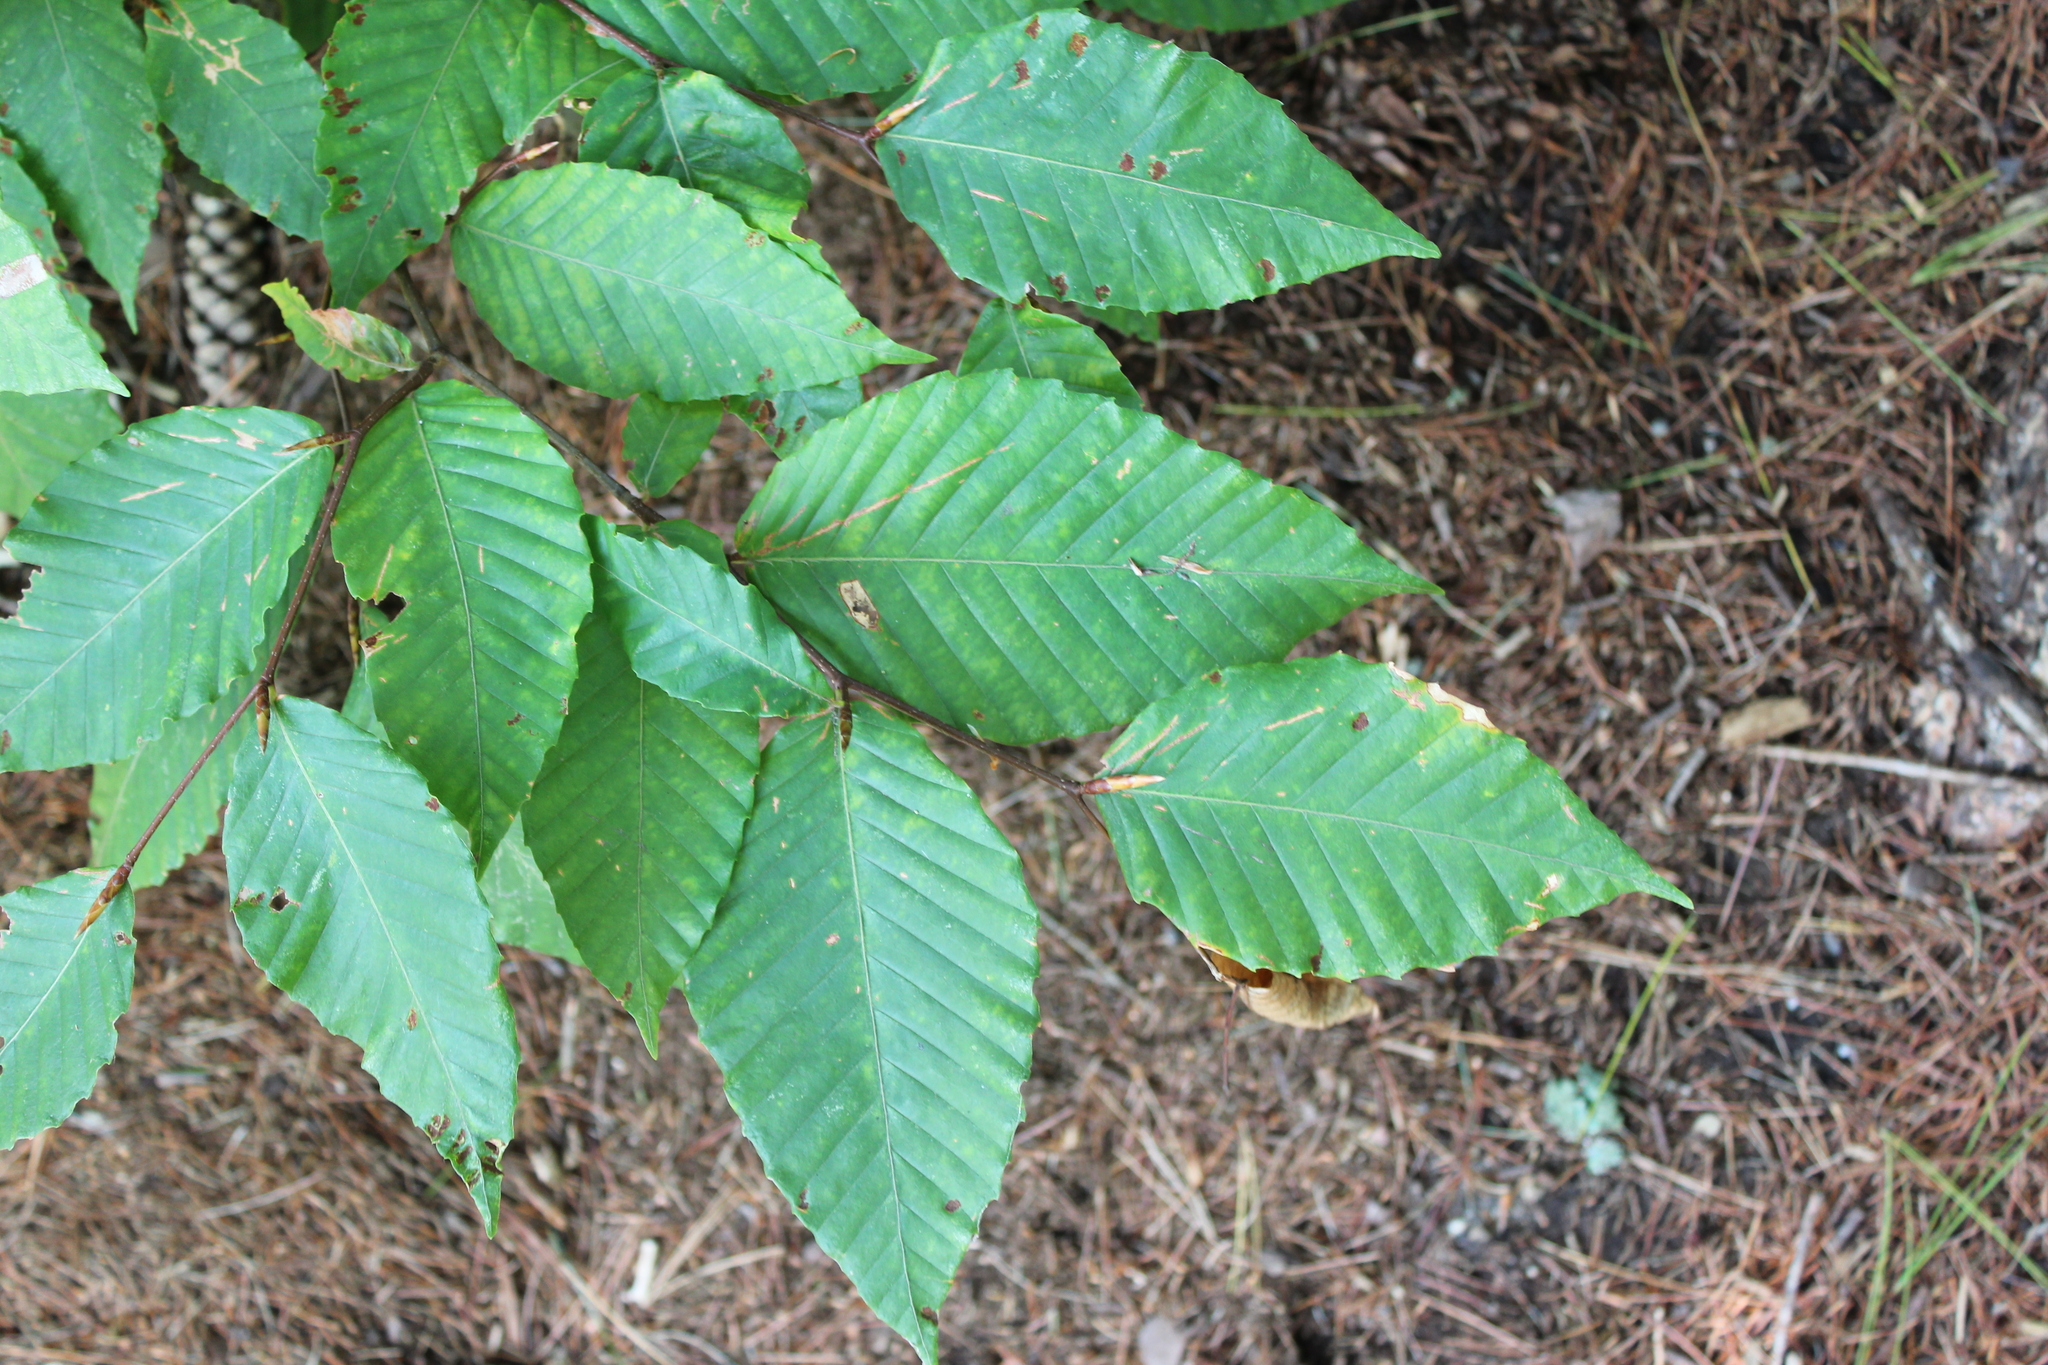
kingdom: Plantae
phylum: Tracheophyta
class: Magnoliopsida
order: Fagales
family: Fagaceae
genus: Fagus
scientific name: Fagus grandifolia
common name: American beech
